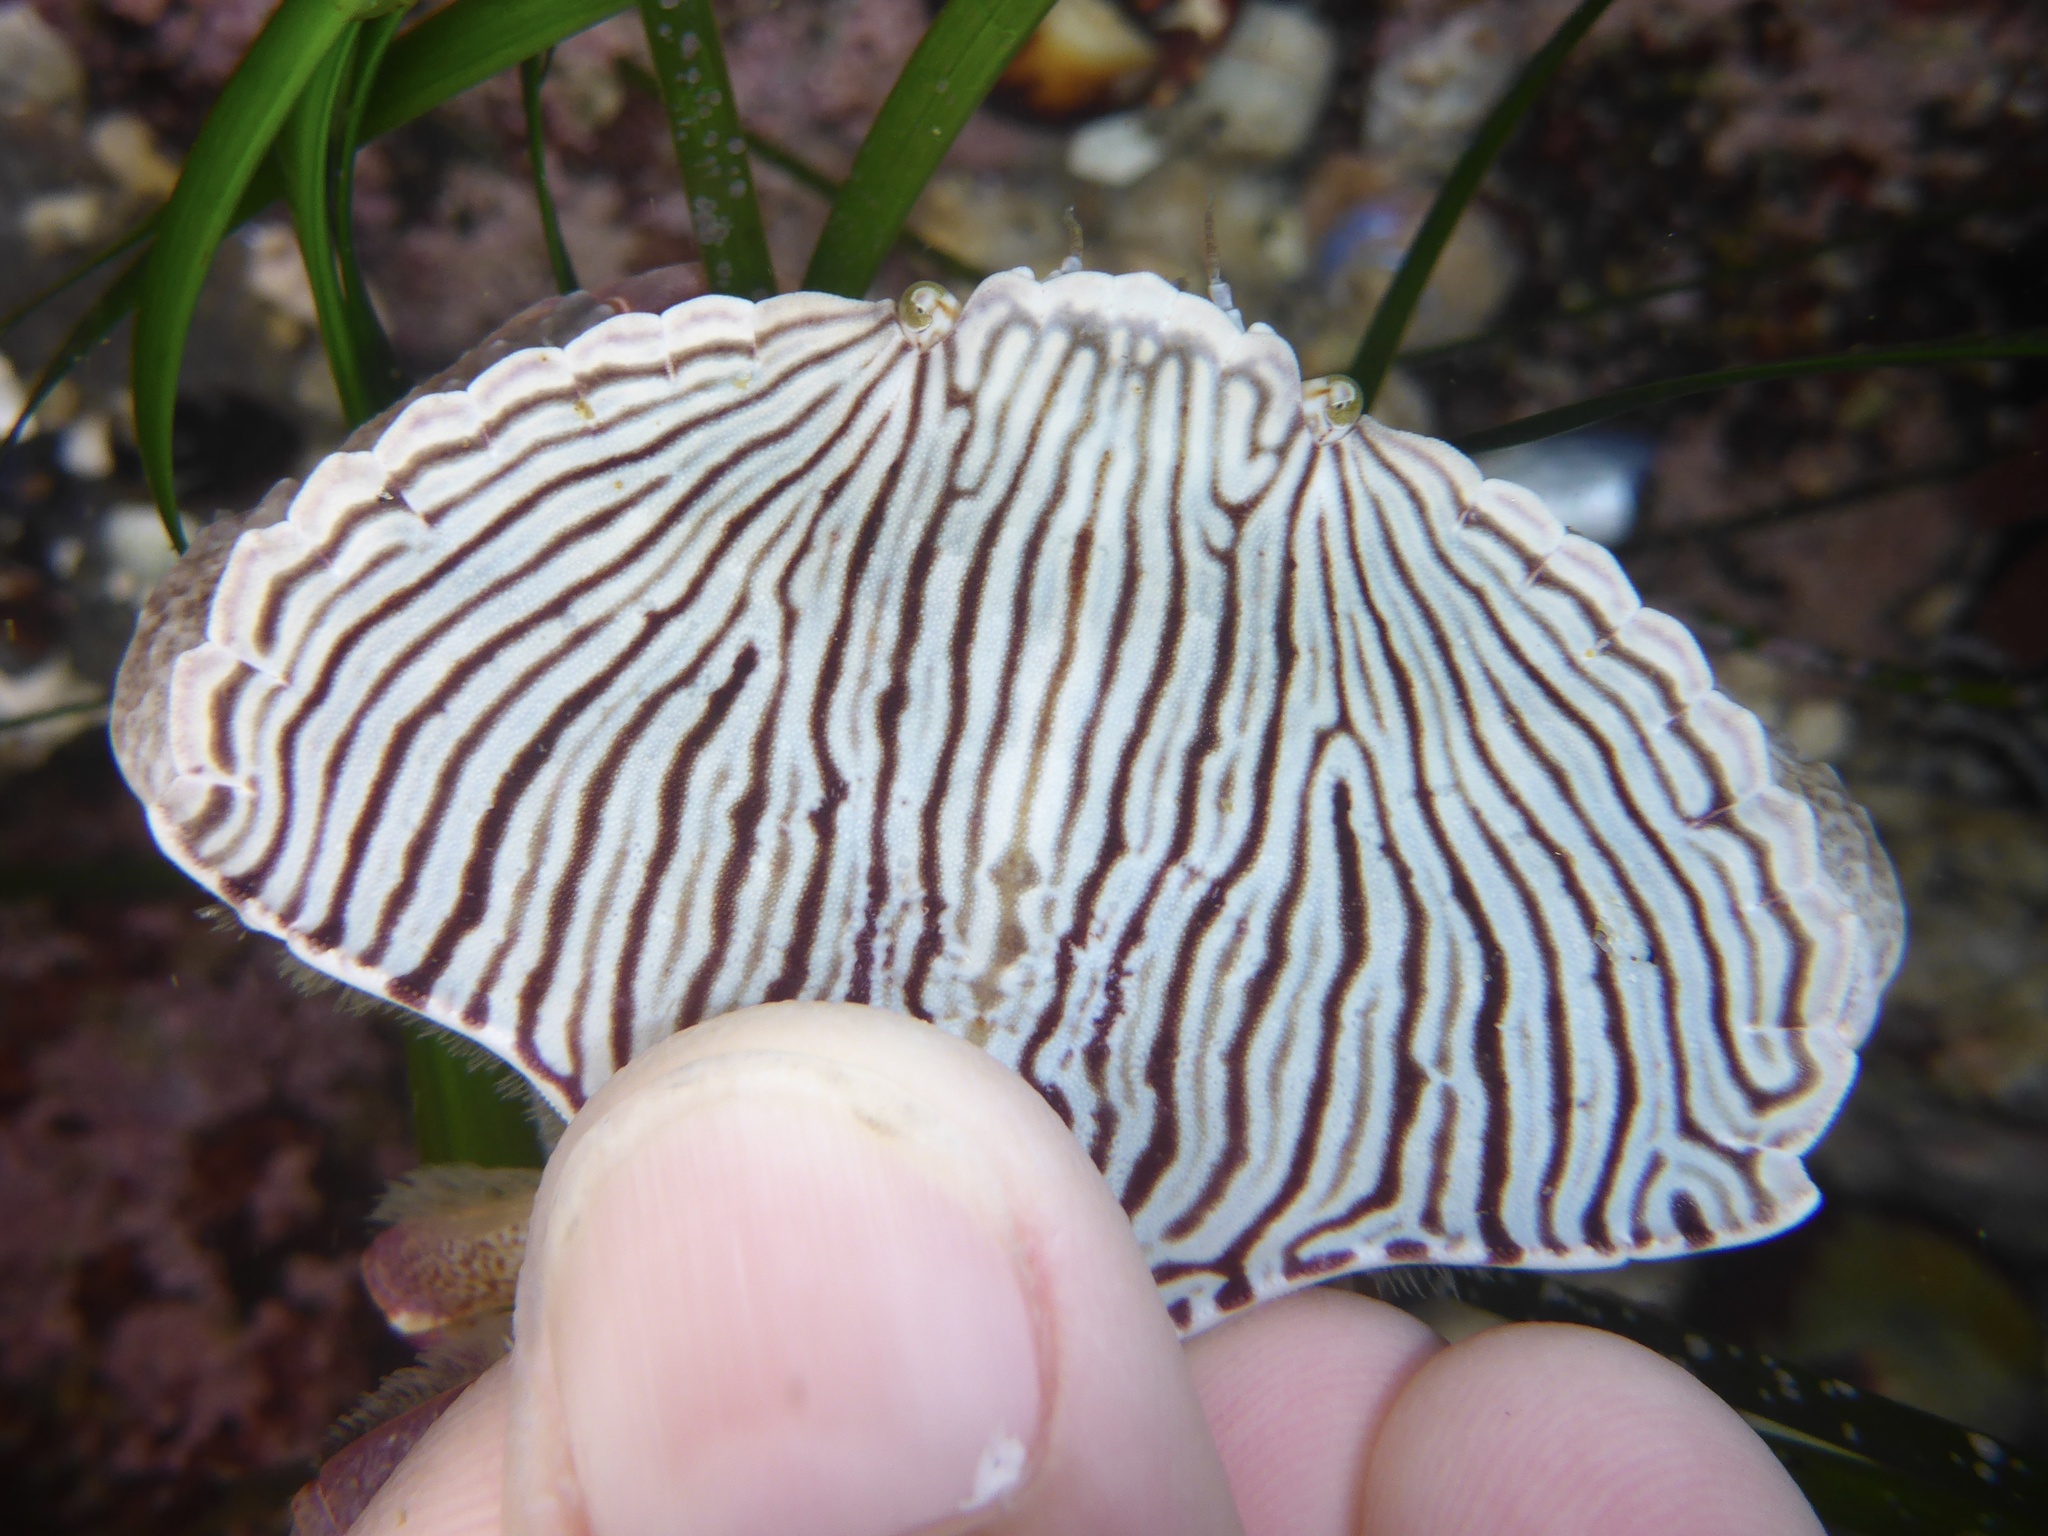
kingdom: Animalia
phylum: Arthropoda
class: Malacostraca
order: Decapoda
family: Cancridae
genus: Cancer
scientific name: Cancer productus
